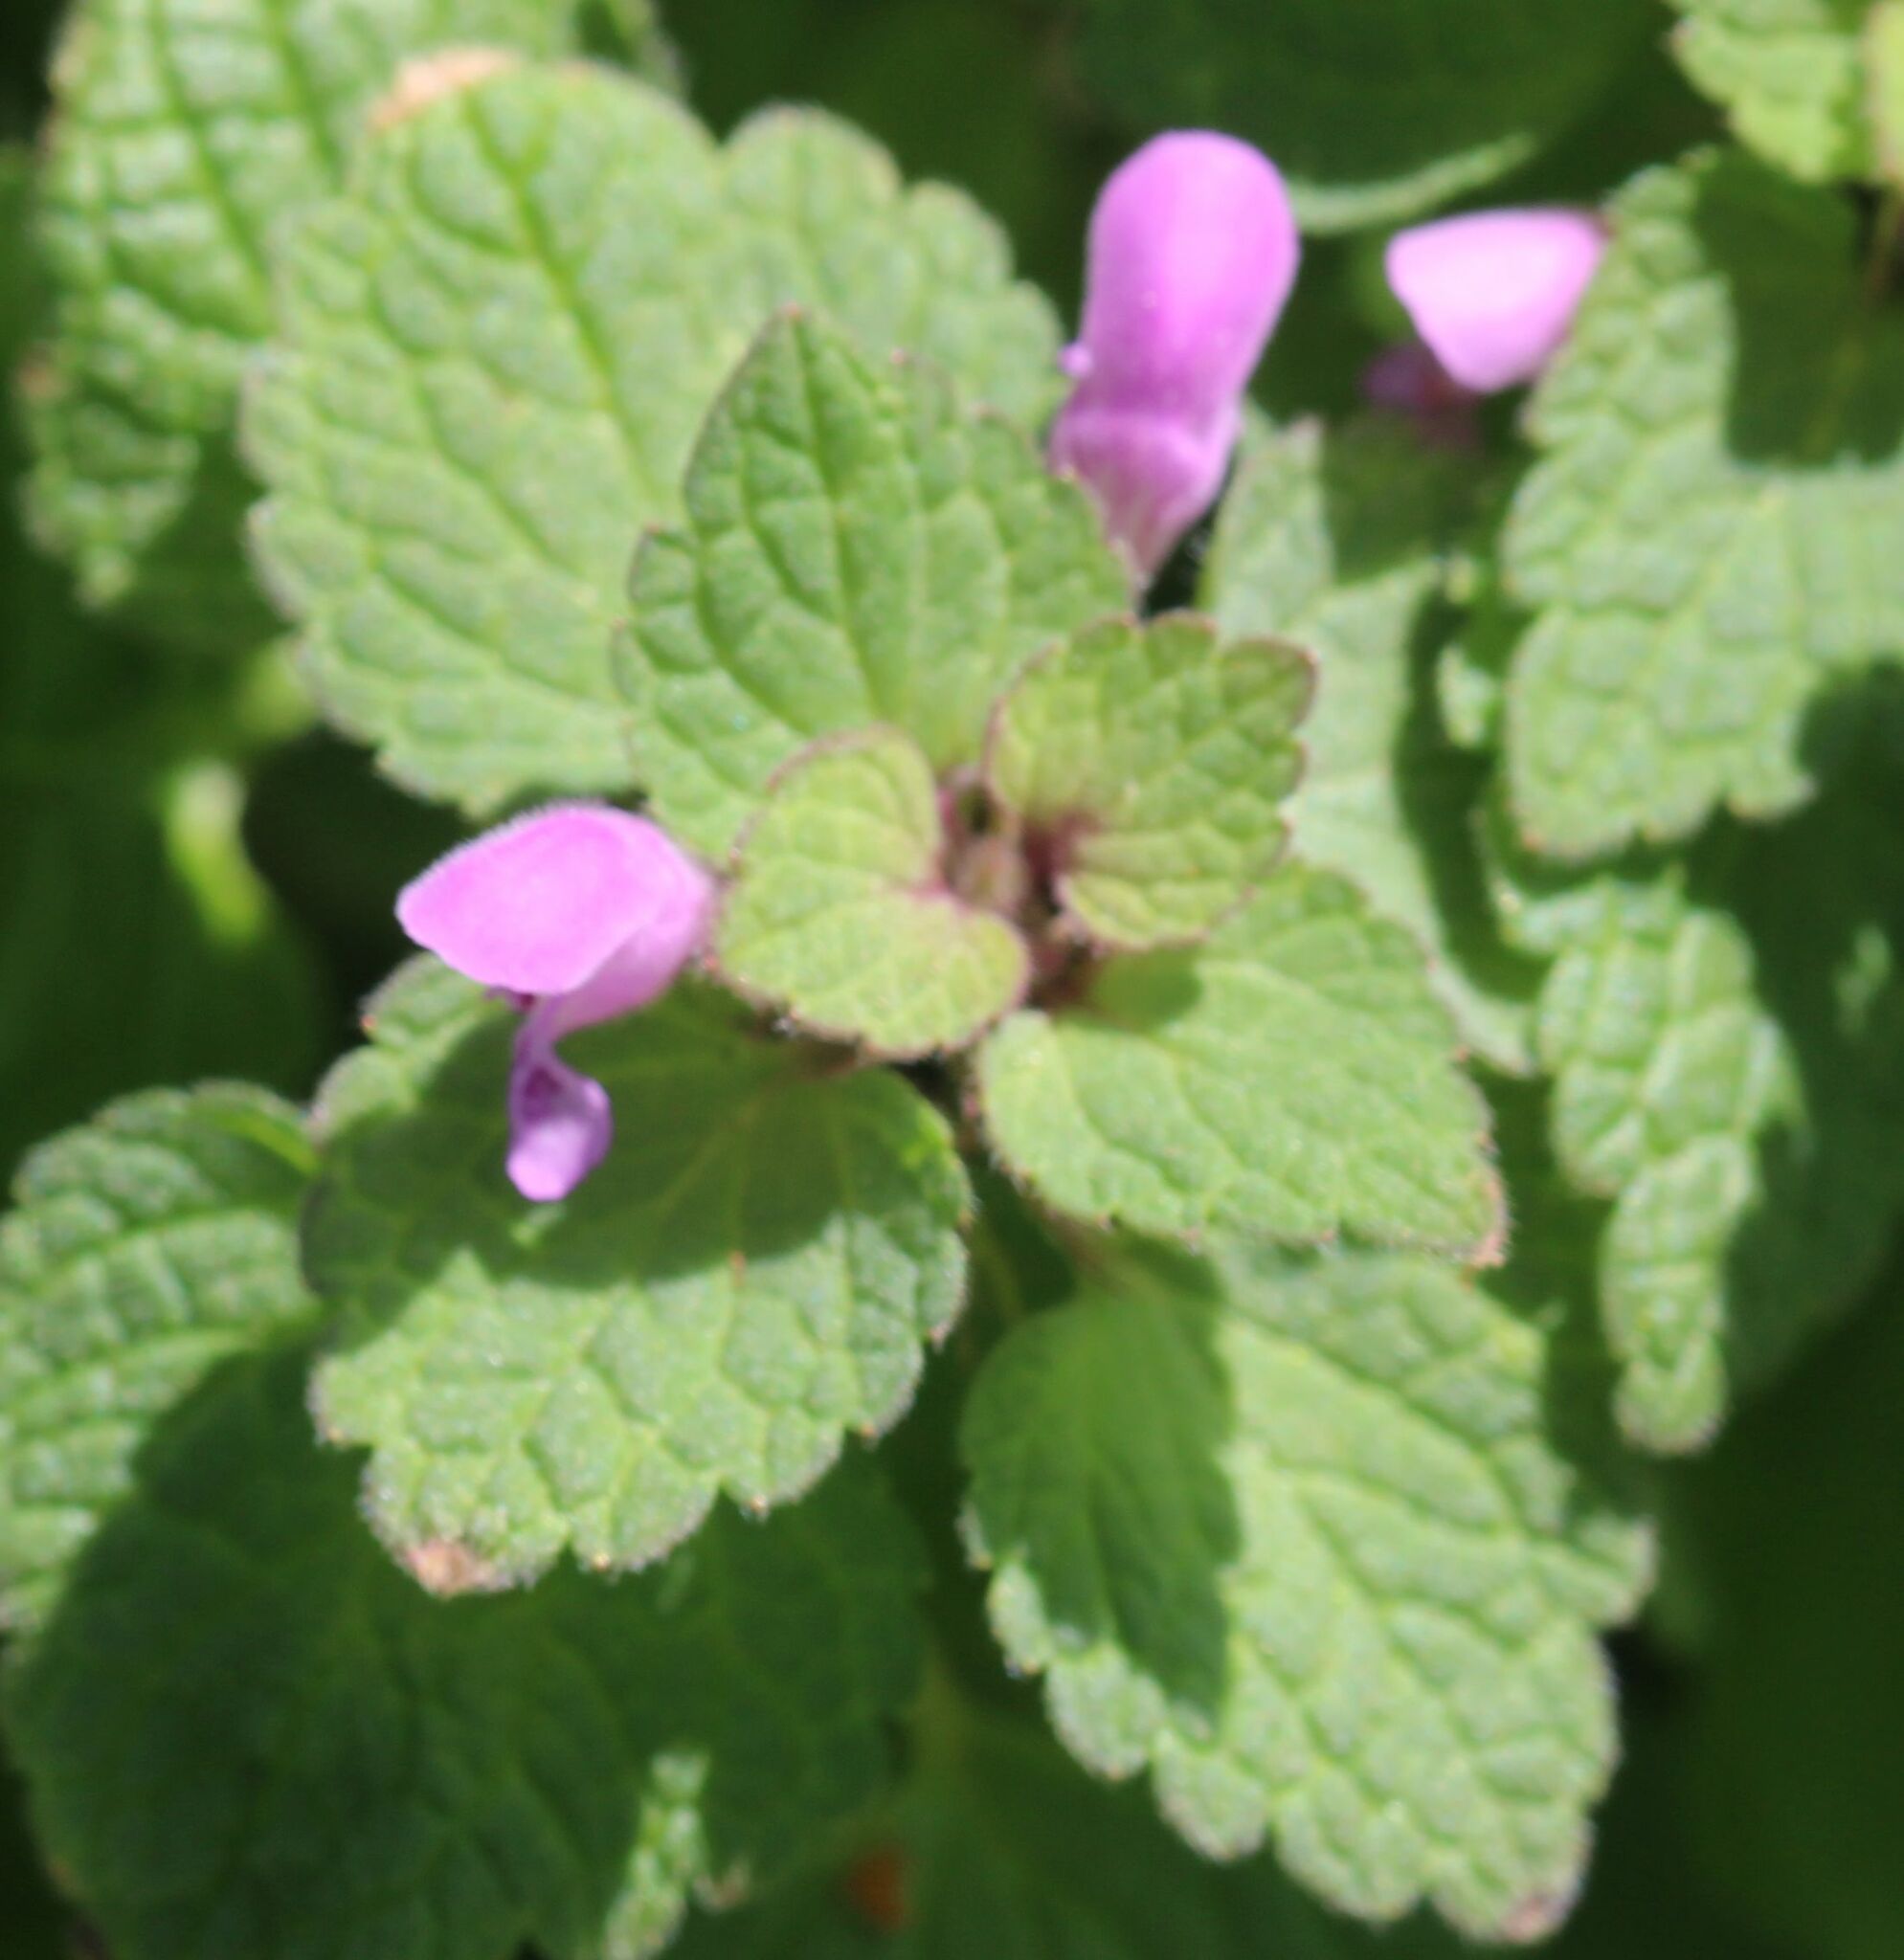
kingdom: Plantae
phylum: Tracheophyta
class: Magnoliopsida
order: Lamiales
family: Lamiaceae
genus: Lamium
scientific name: Lamium purpureum
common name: Red dead-nettle
